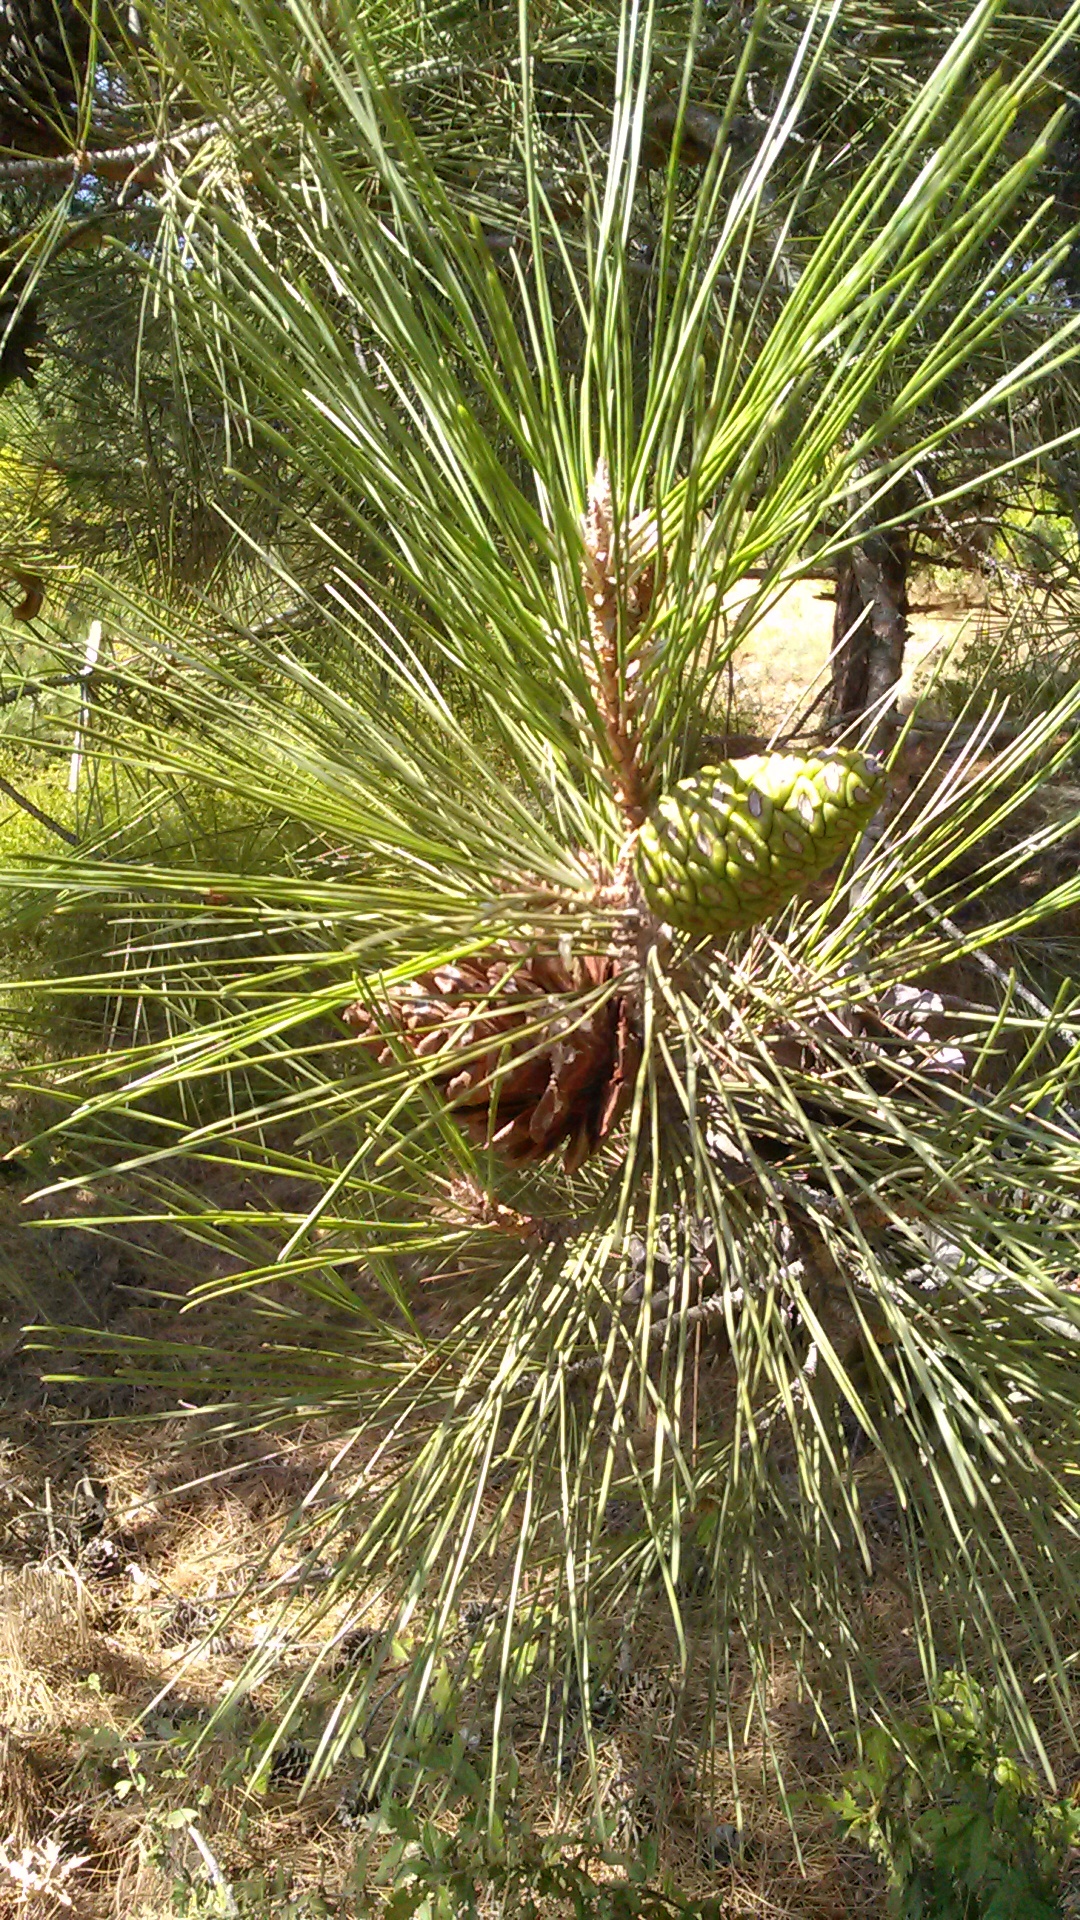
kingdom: Plantae
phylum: Tracheophyta
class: Pinopsida
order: Pinales
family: Pinaceae
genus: Pinus
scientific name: Pinus nigra
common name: Austrian pine
